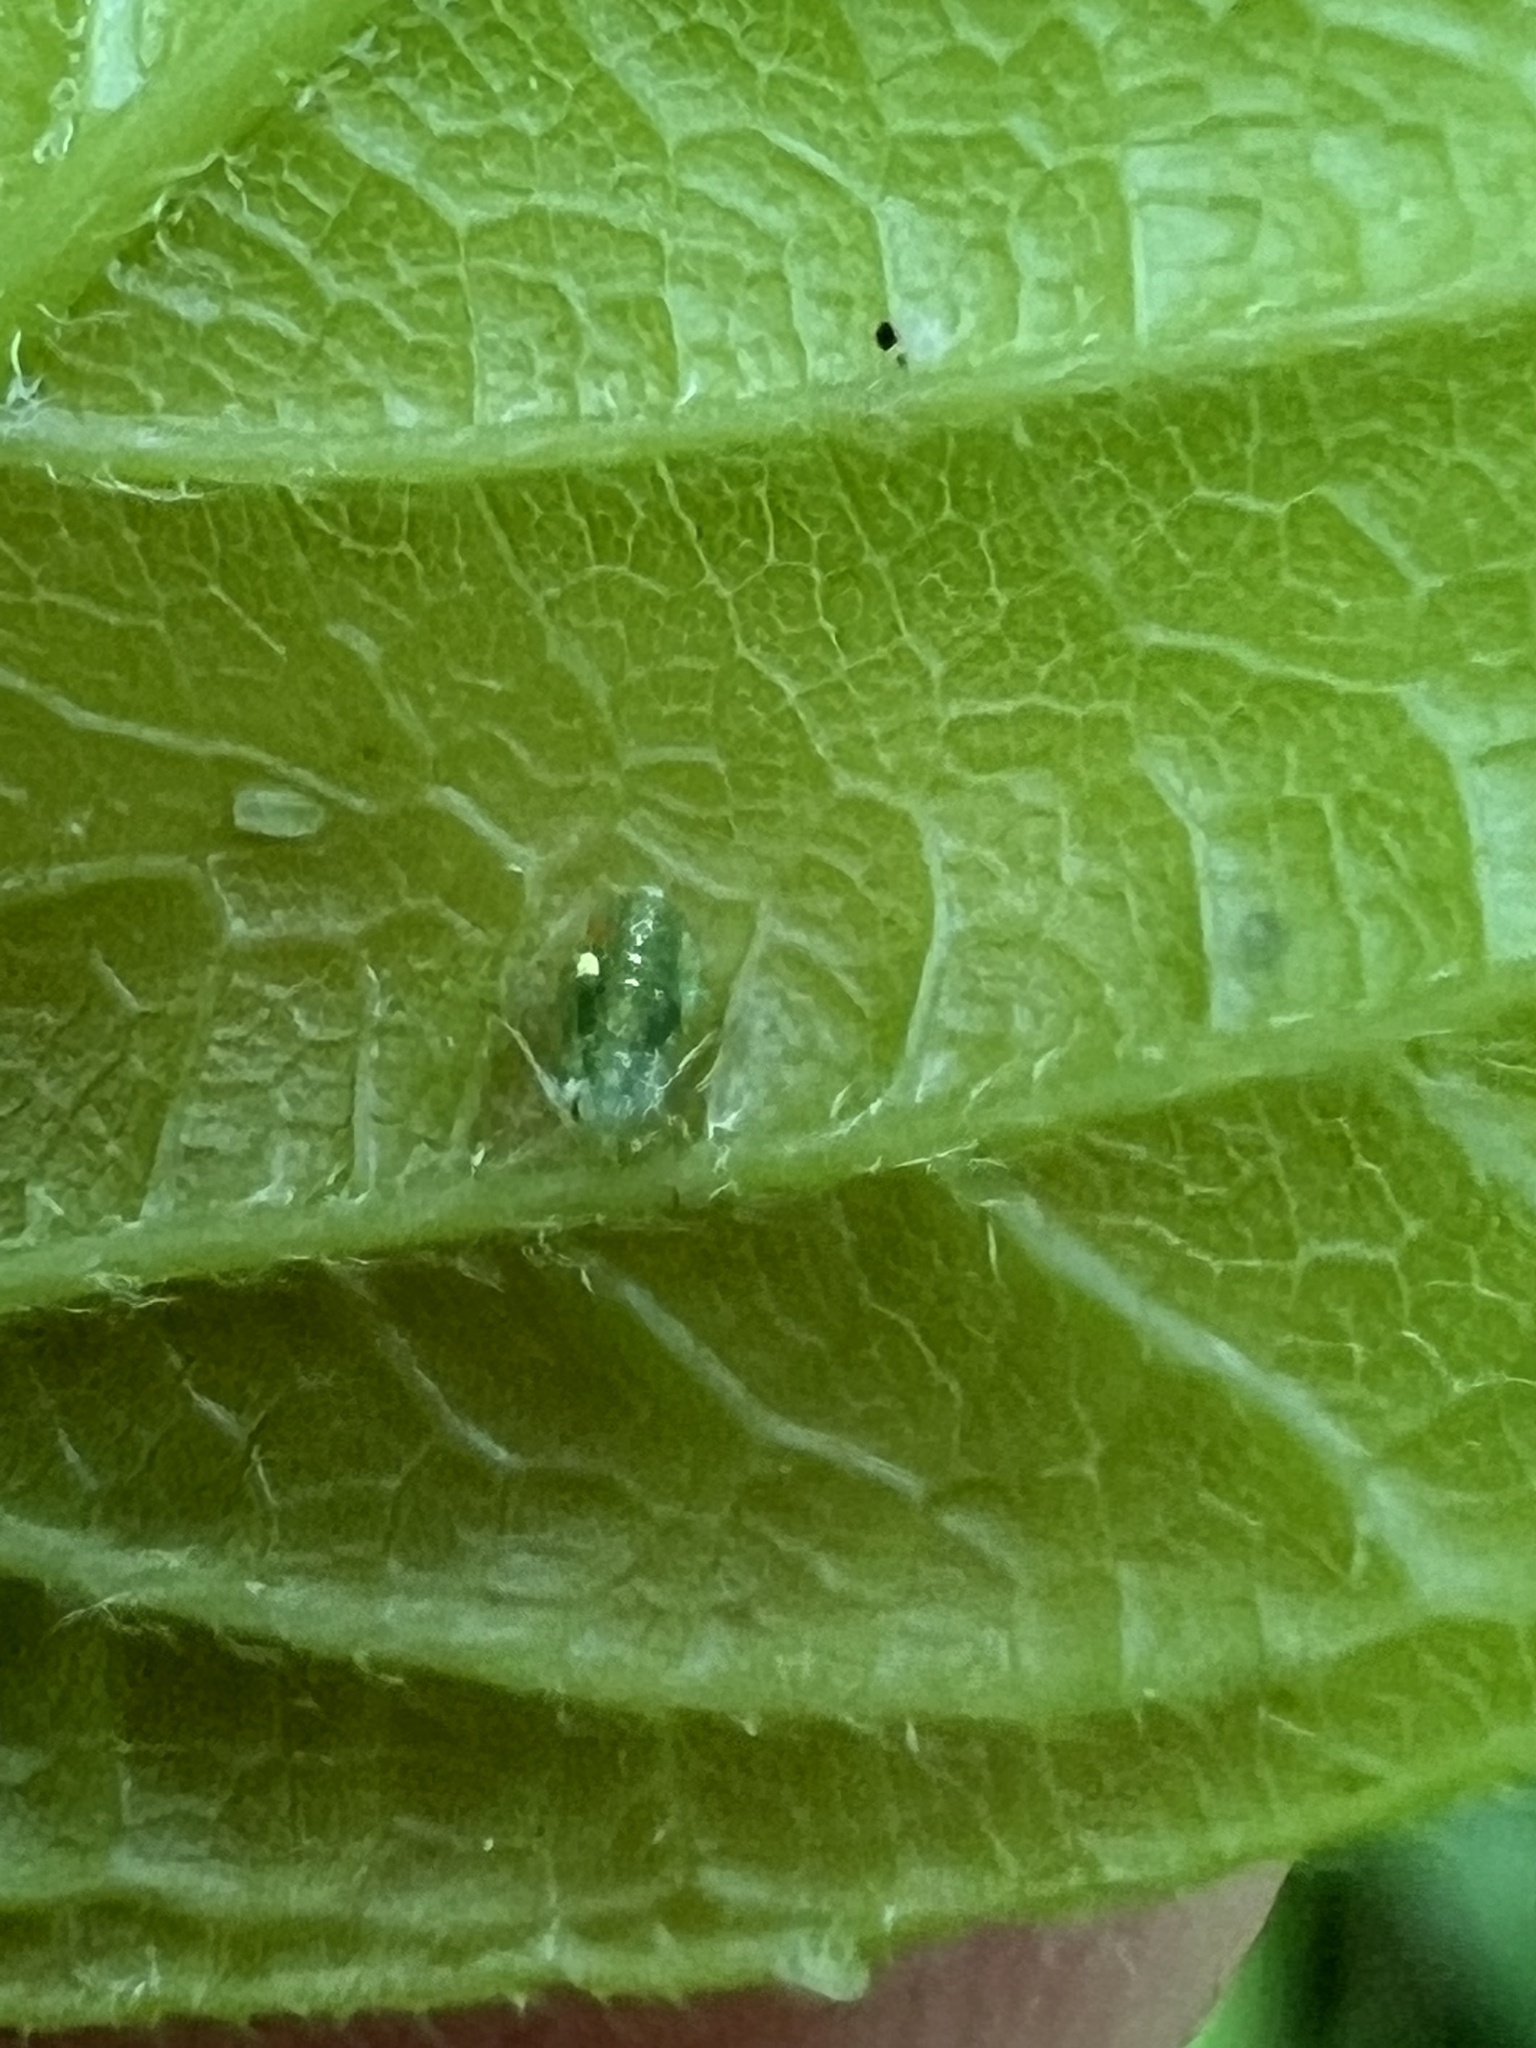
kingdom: Animalia
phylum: Arthropoda
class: Insecta
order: Hemiptera
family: Aphididae
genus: Periphyllus
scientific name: Periphyllus negundinis
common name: Boxelder aphid
